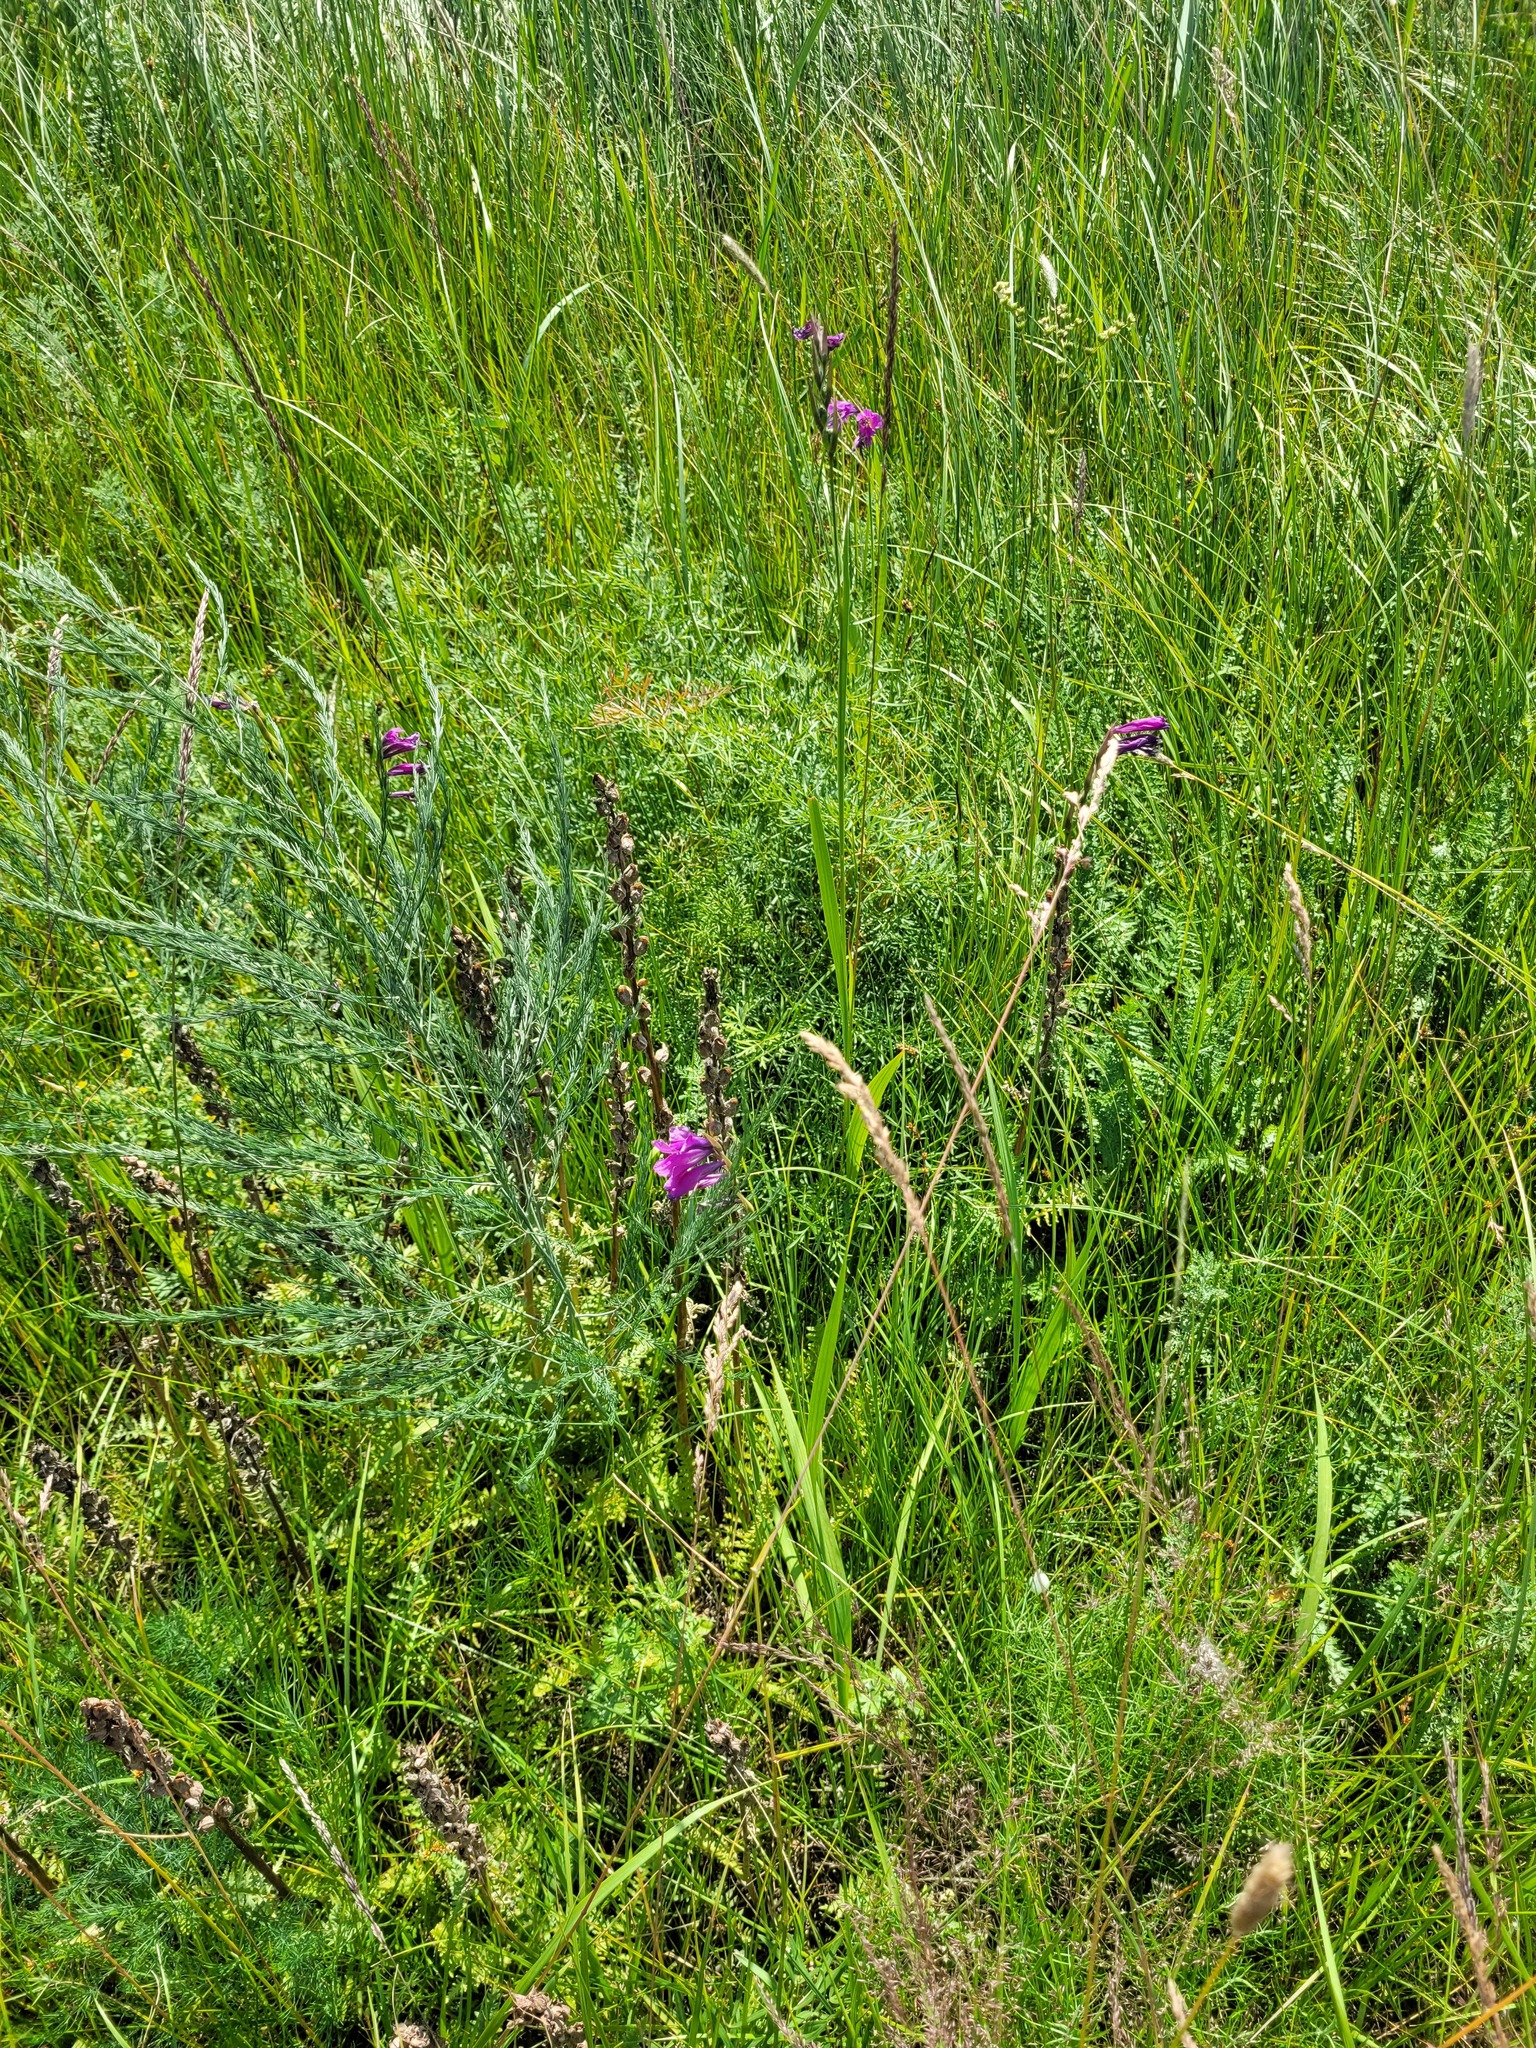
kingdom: Plantae
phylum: Tracheophyta
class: Liliopsida
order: Asparagales
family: Iridaceae
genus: Gladiolus
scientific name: Gladiolus tenuis
